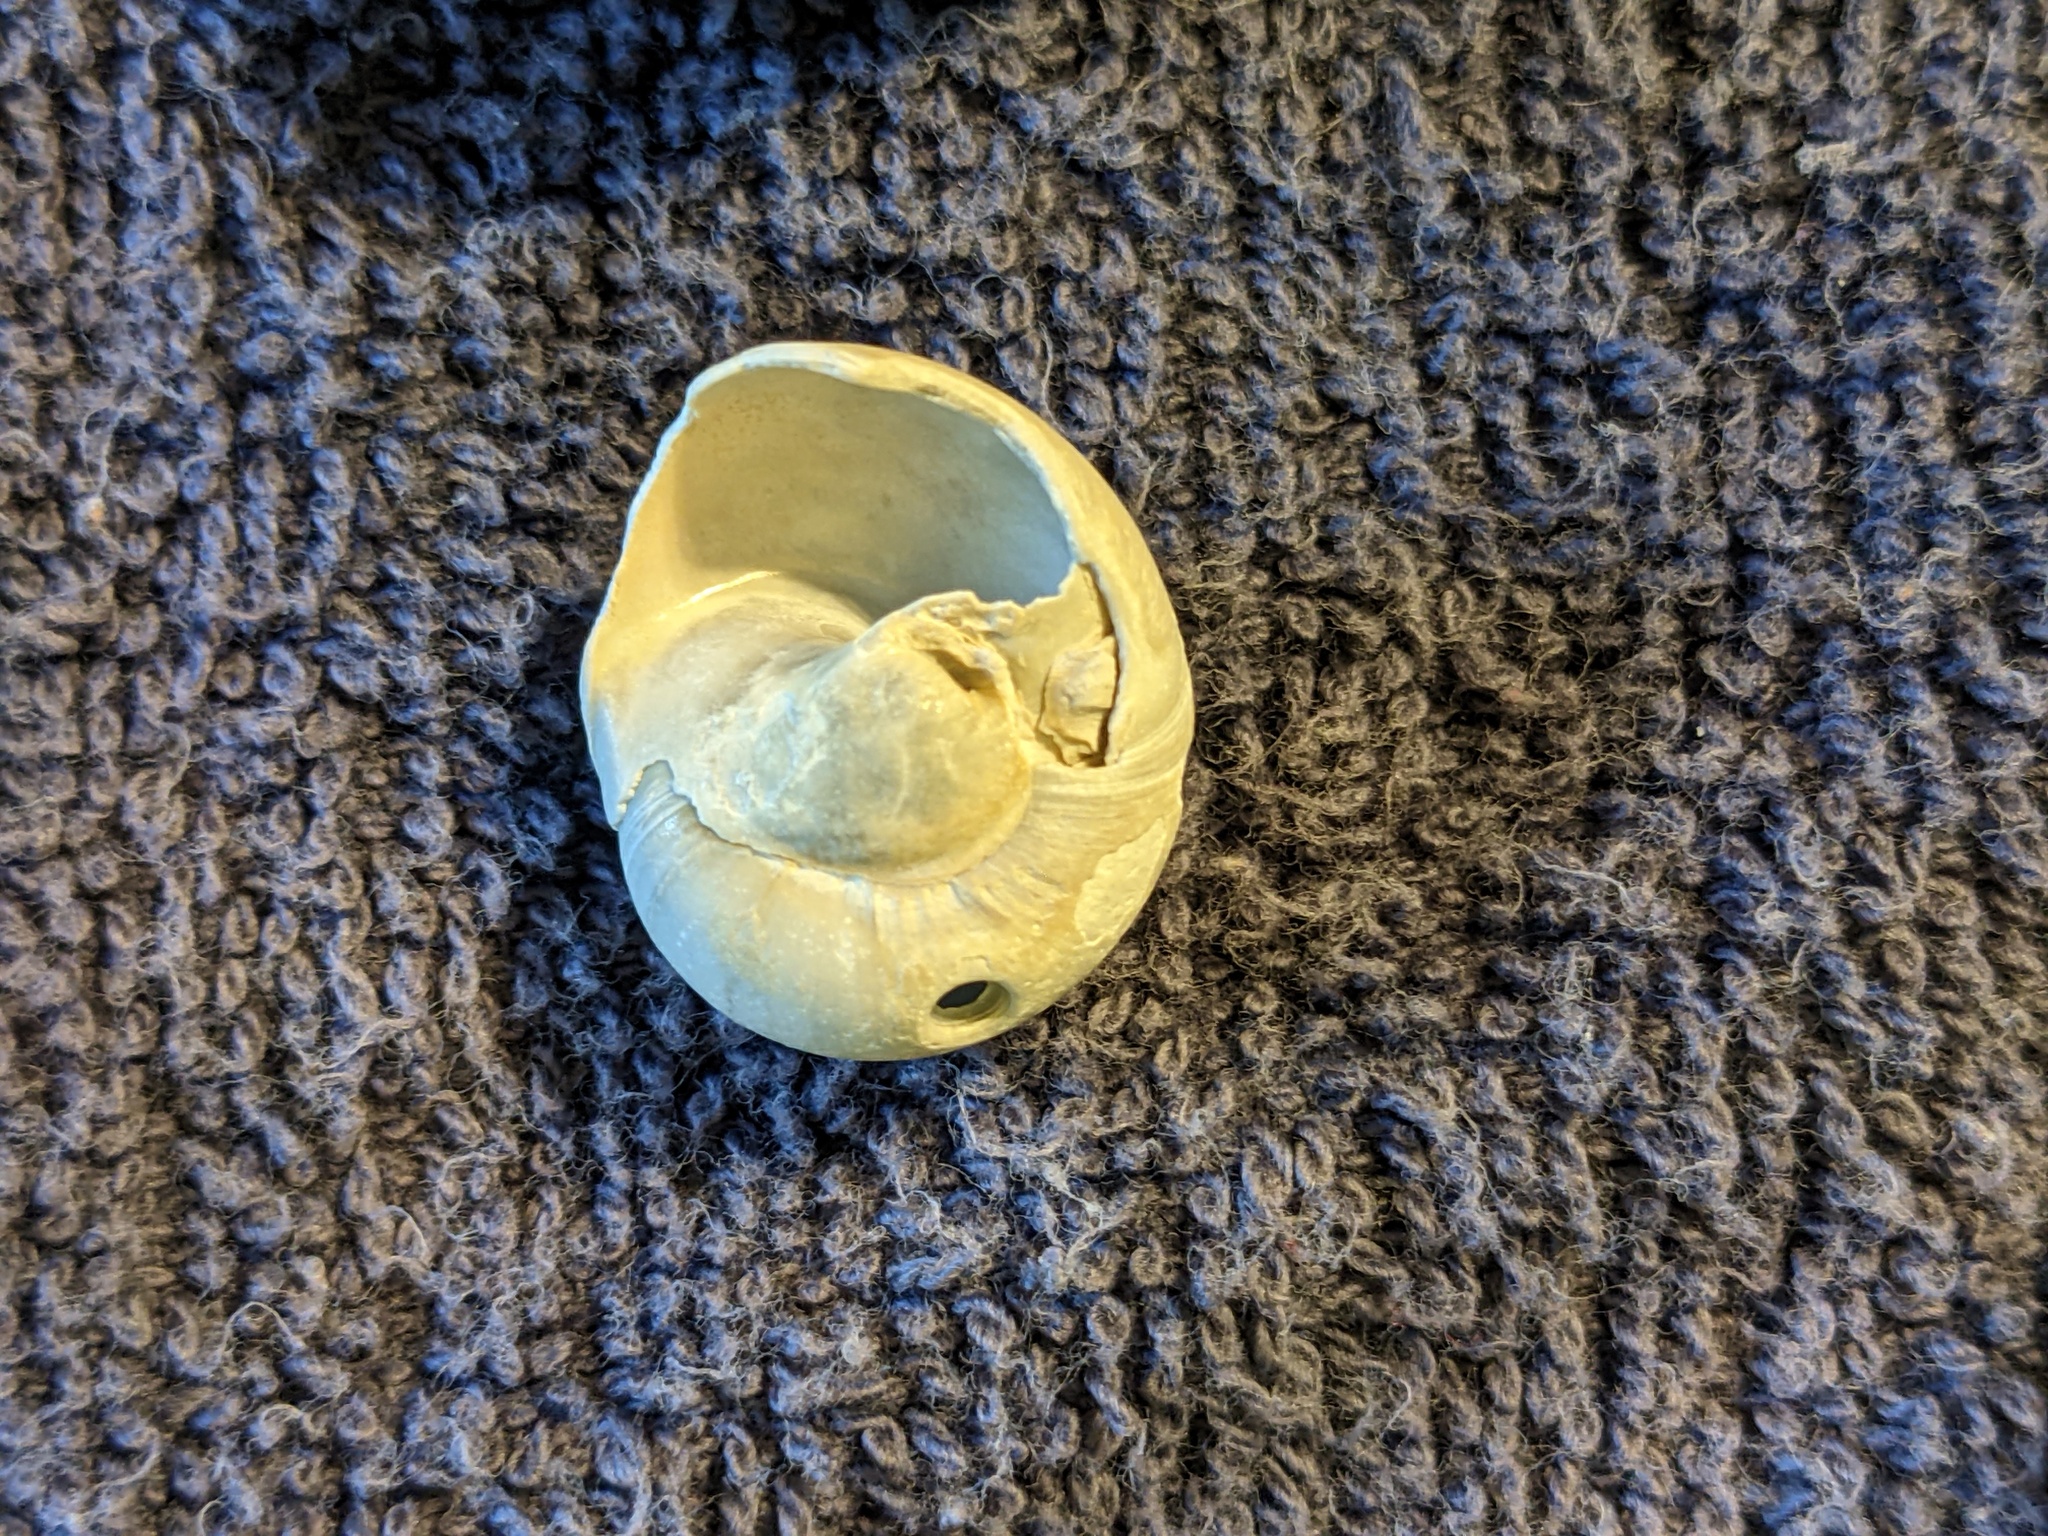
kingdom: Animalia
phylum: Mollusca
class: Gastropoda
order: Littorinimorpha
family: Naticidae
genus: Neverita
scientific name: Neverita duplicata
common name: Lobed moonsnail
